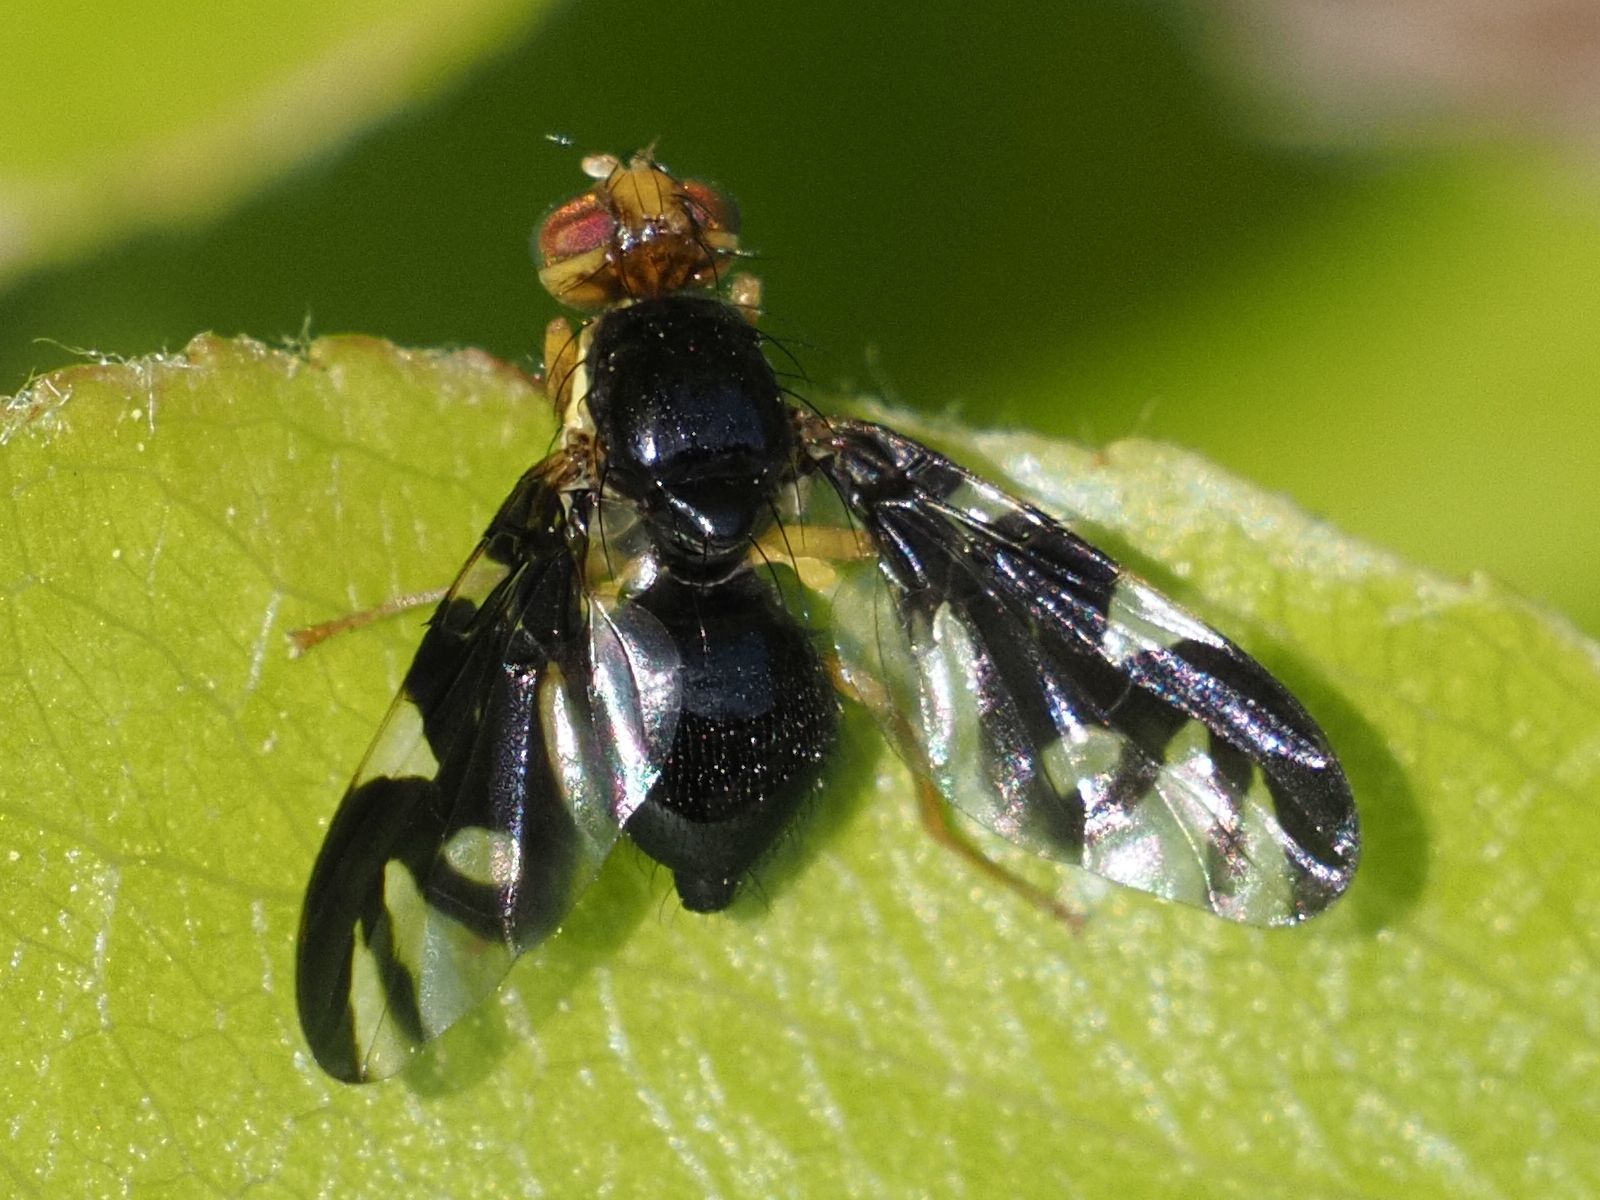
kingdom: Animalia
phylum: Arthropoda
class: Insecta
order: Diptera
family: Tephritidae
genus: Euleia
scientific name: Euleia heraclei
